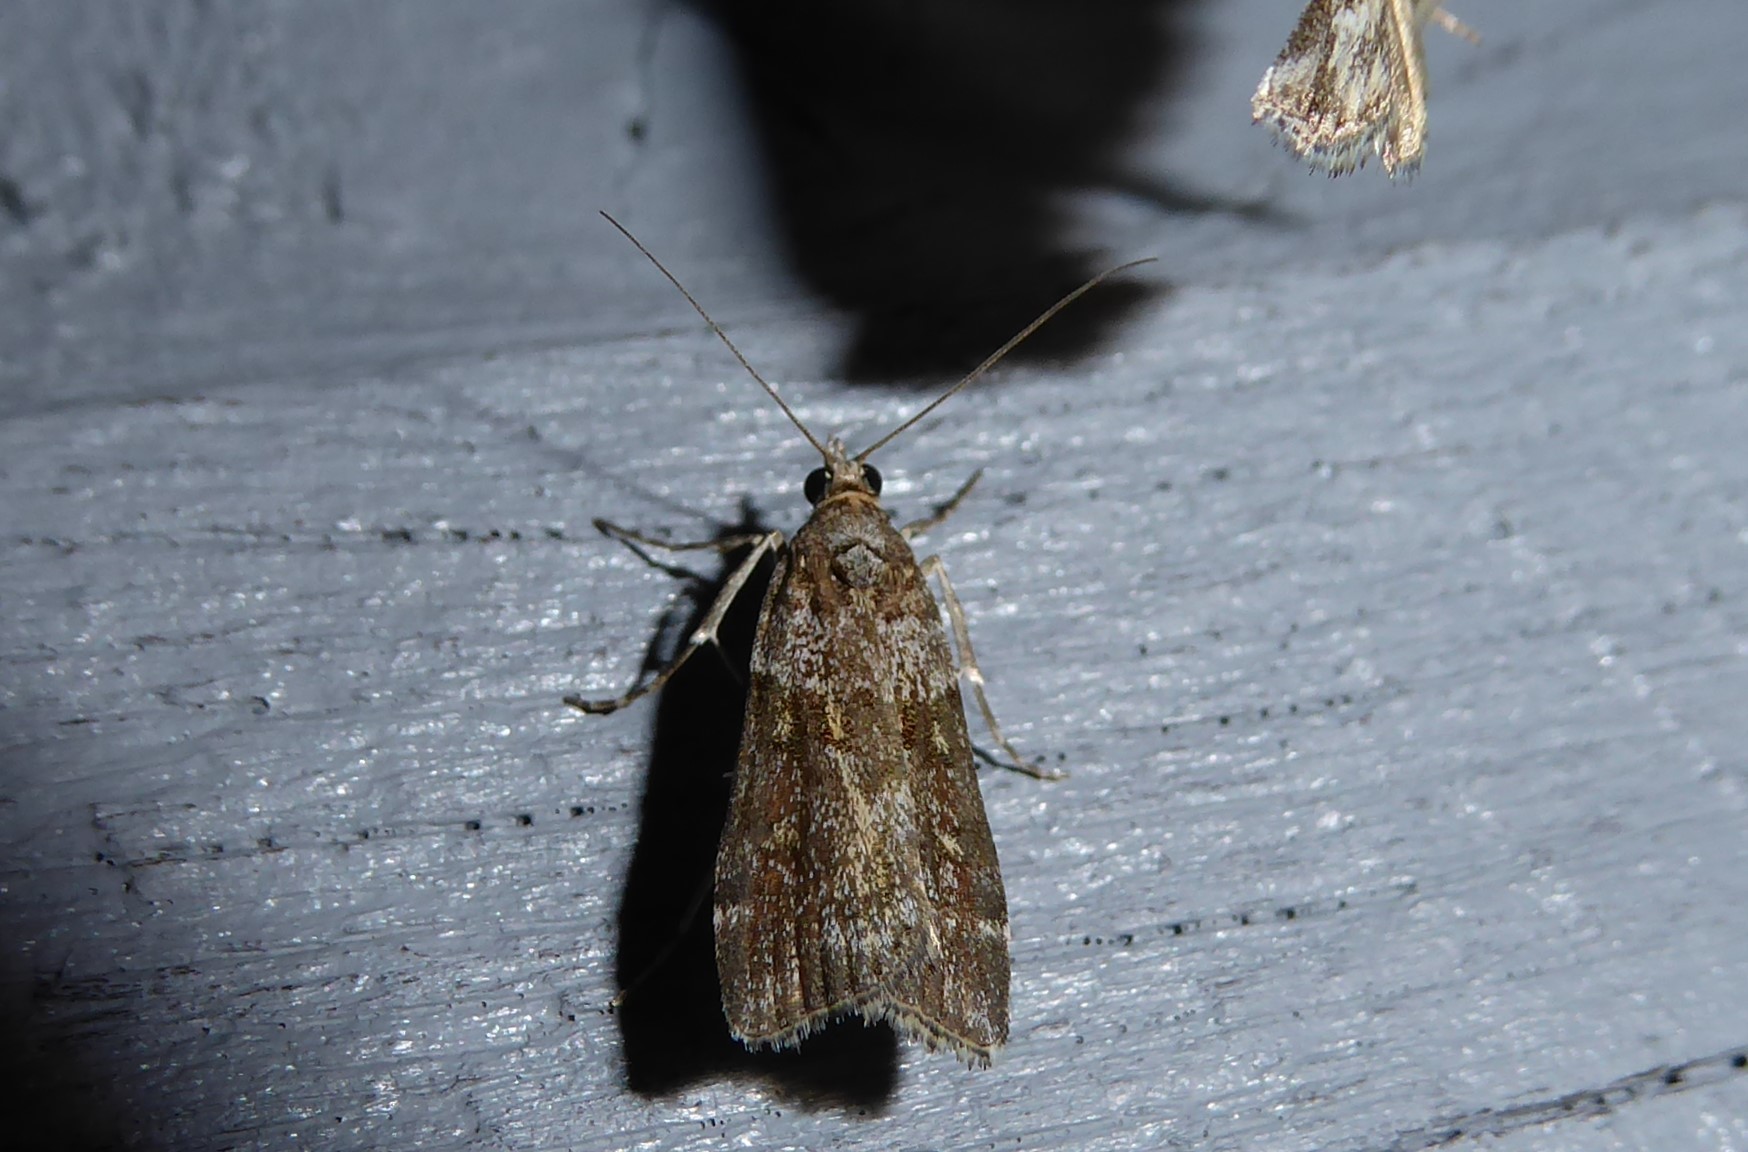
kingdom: Animalia
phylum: Arthropoda
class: Insecta
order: Lepidoptera
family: Crambidae
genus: Eudonia
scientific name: Eudonia submarginalis
